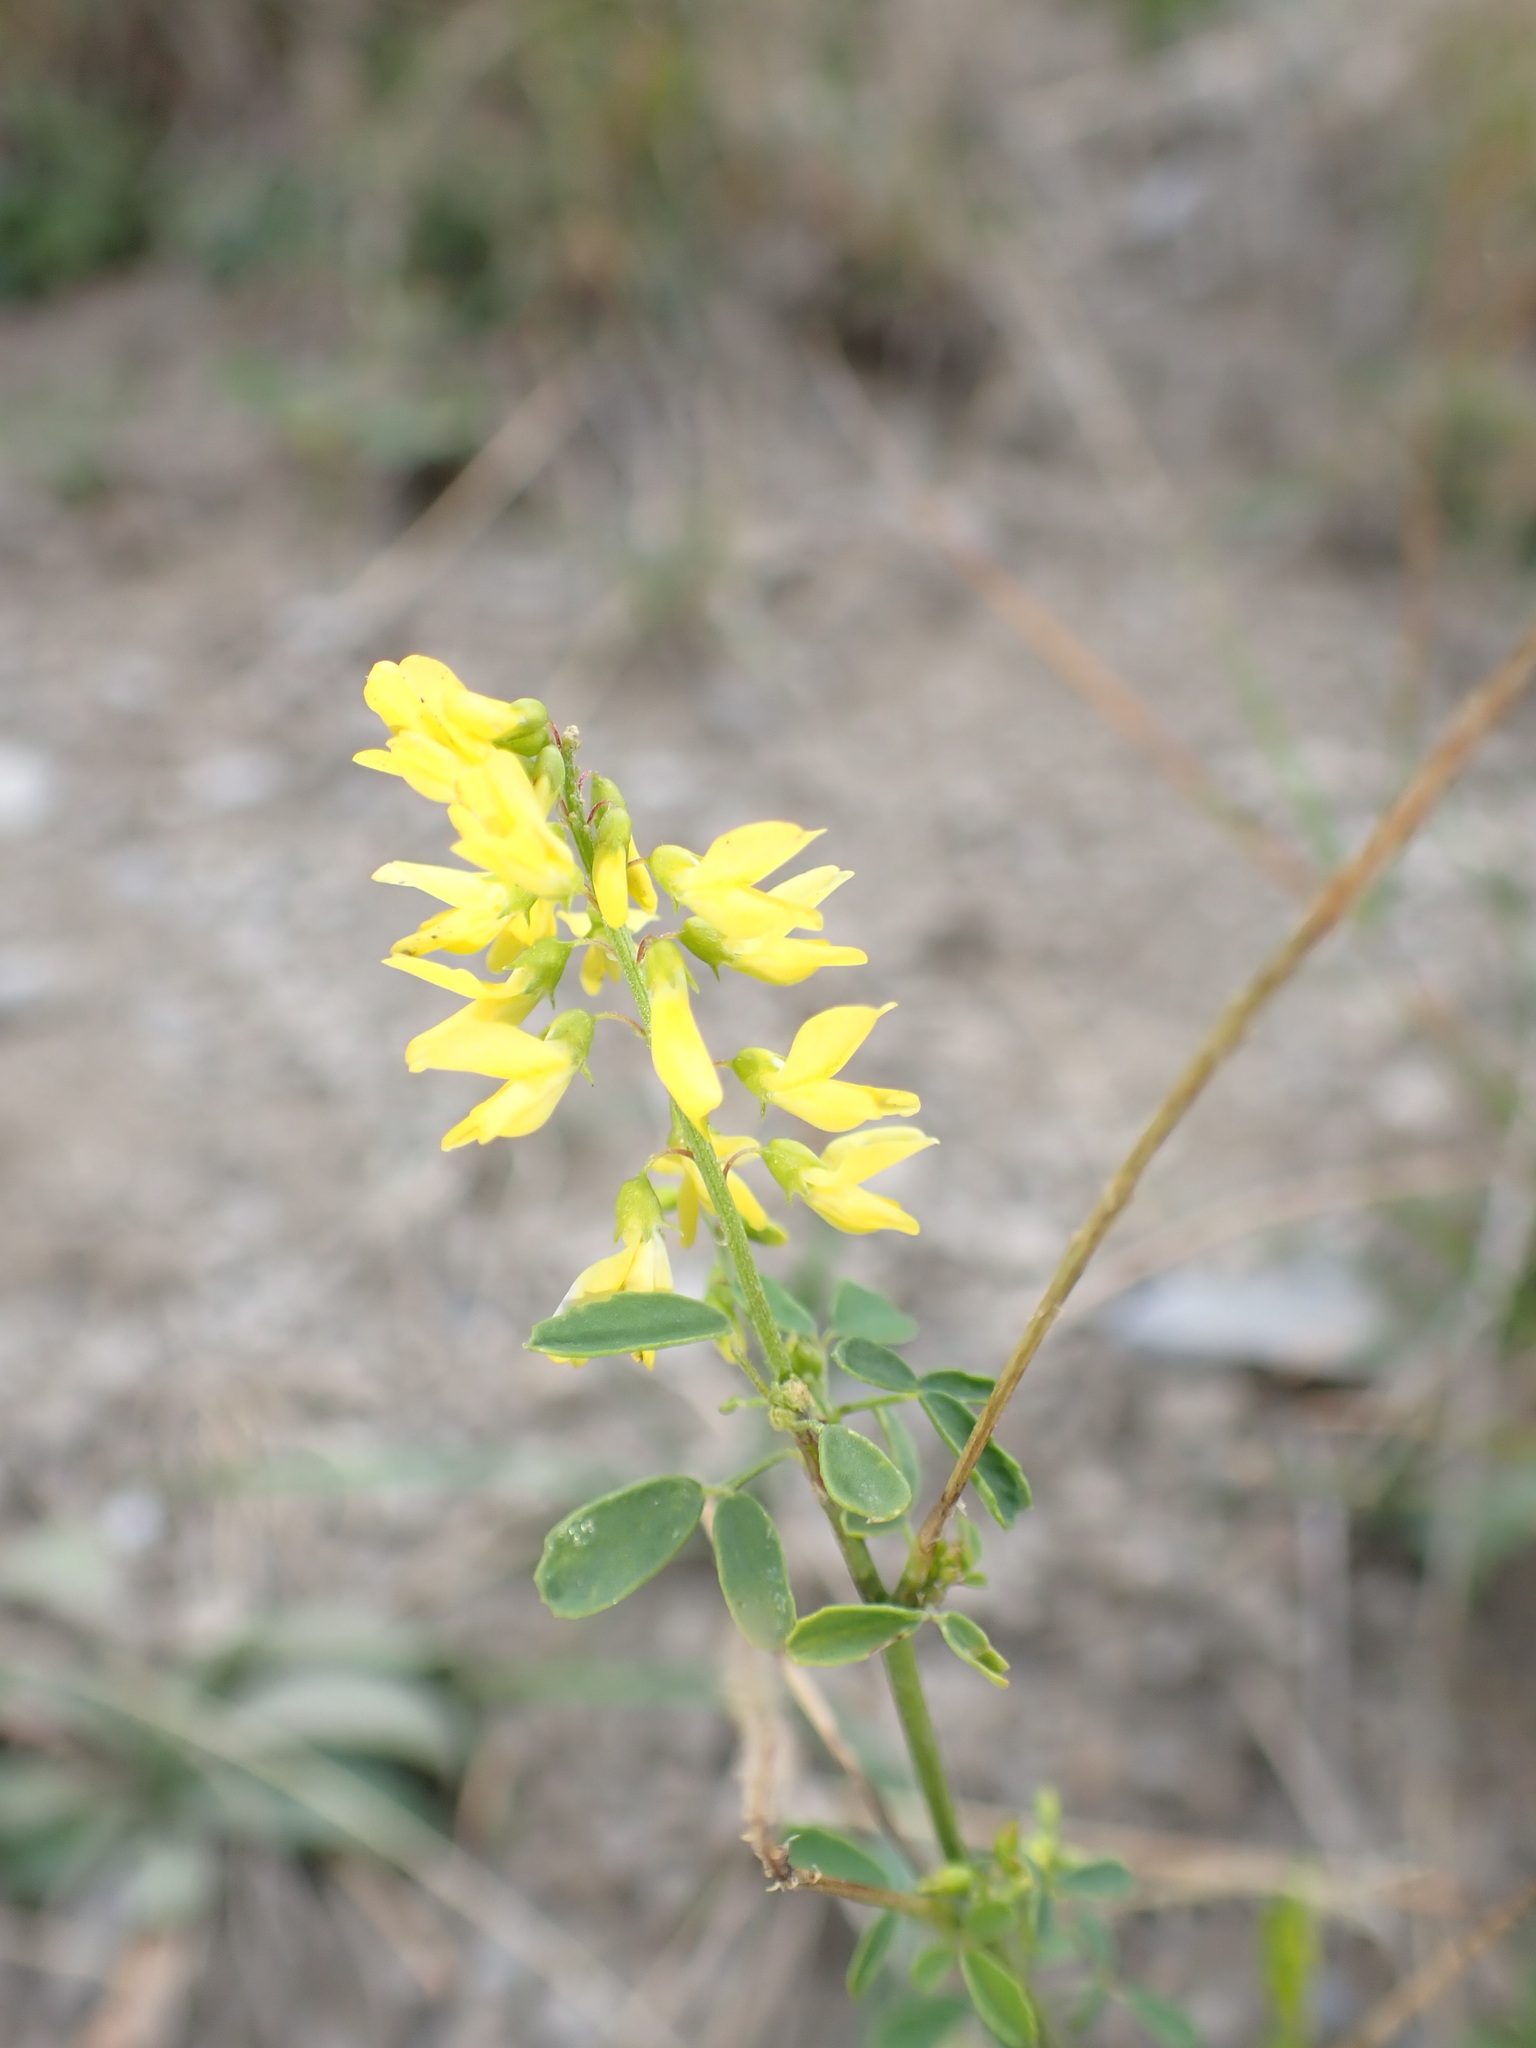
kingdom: Plantae
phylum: Tracheophyta
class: Magnoliopsida
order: Fabales
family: Fabaceae
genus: Melilotus
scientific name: Melilotus officinalis
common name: Sweetclover
